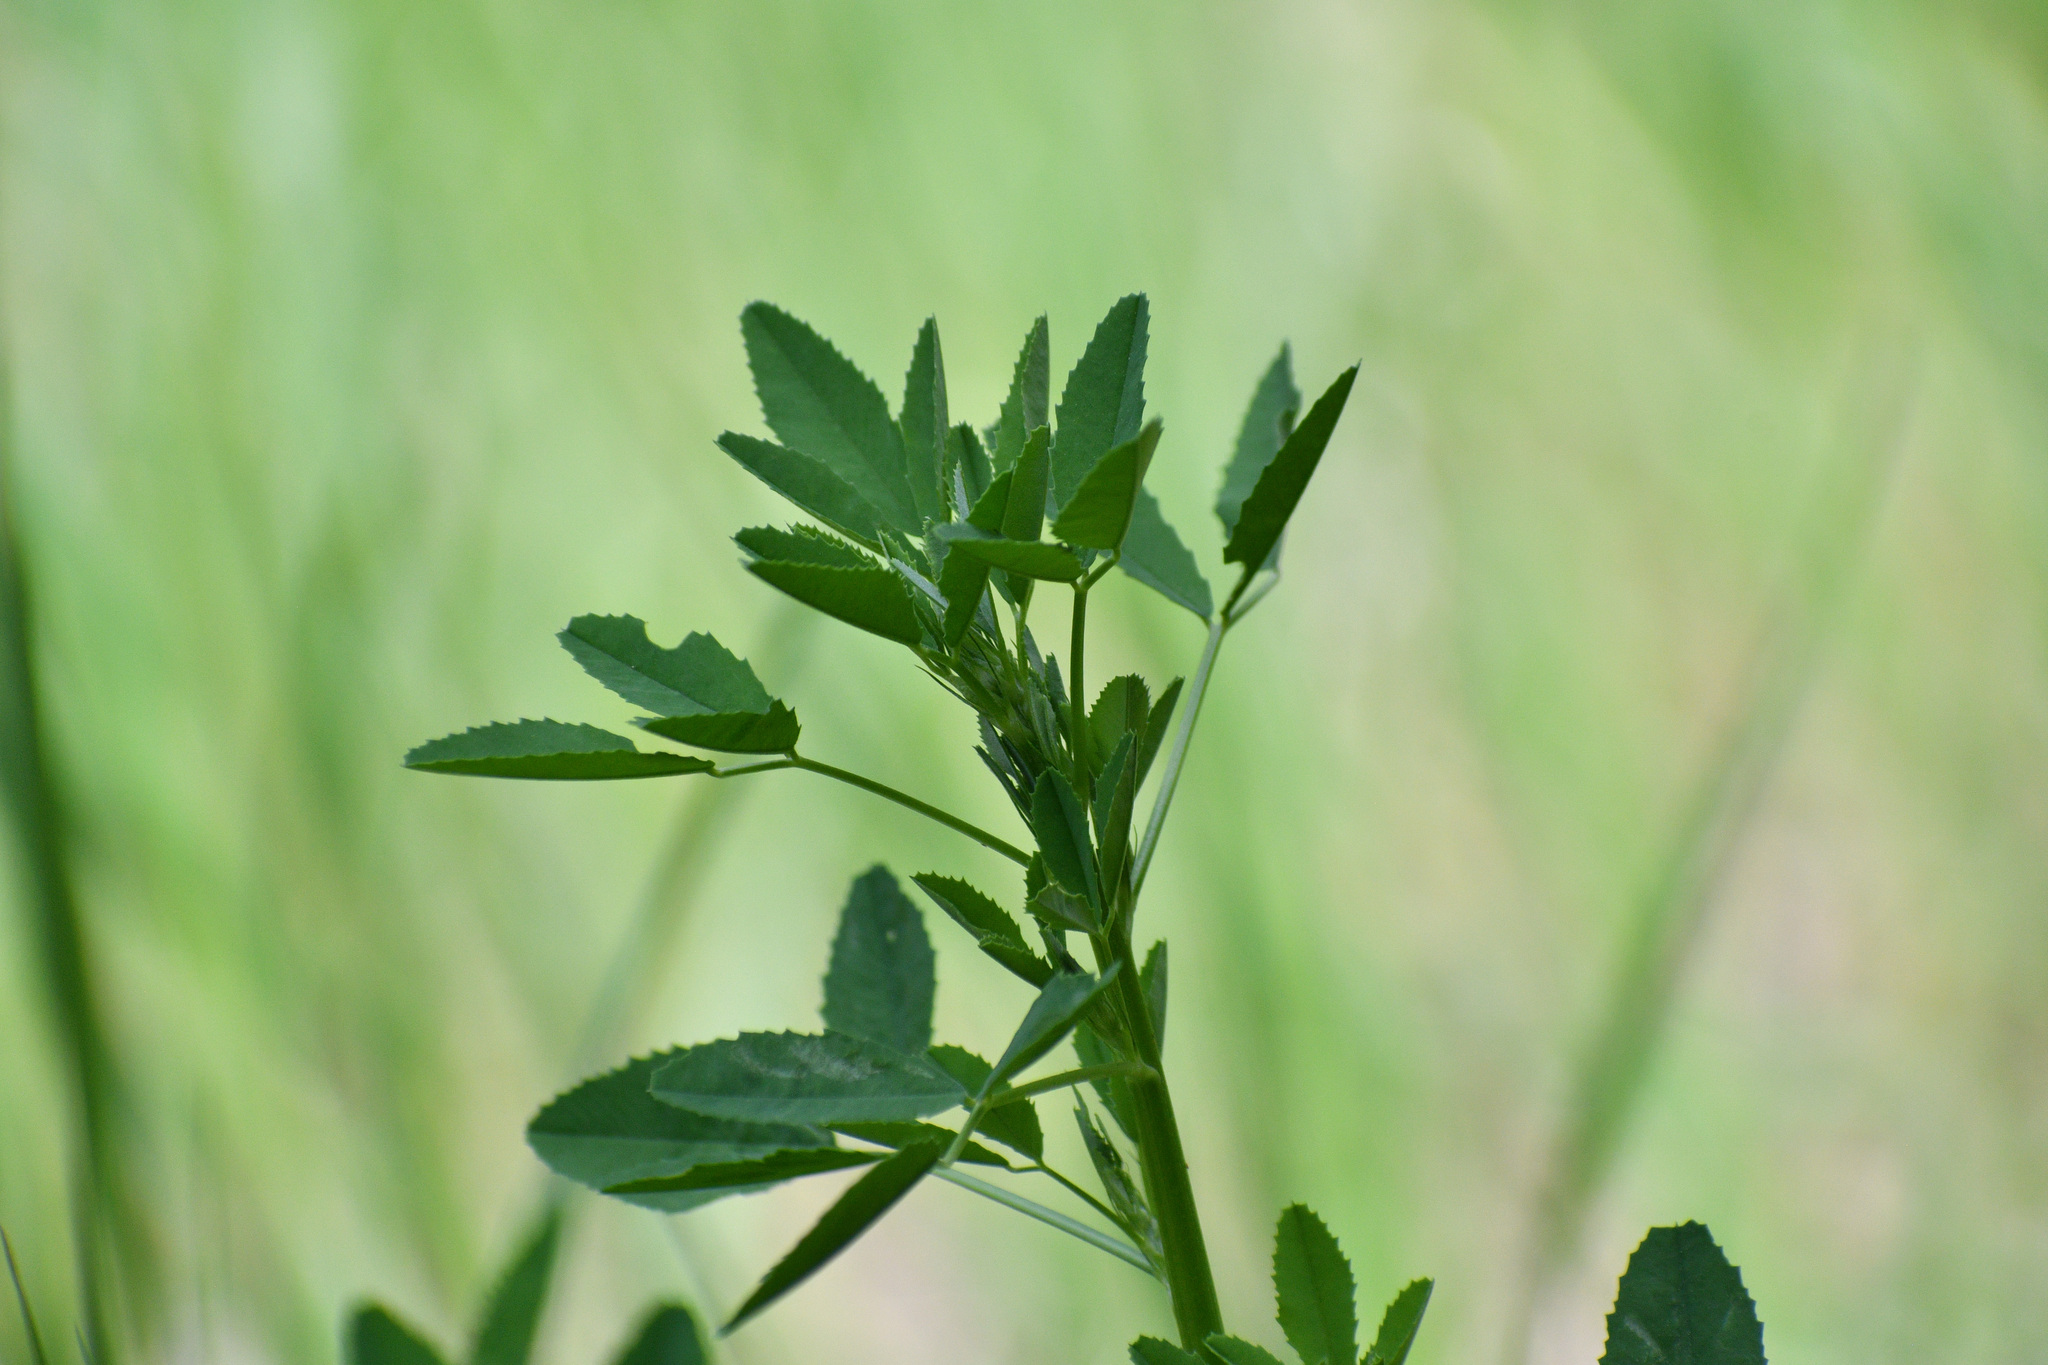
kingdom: Plantae
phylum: Tracheophyta
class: Magnoliopsida
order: Fabales
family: Fabaceae
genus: Melilotus
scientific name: Melilotus officinalis
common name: Sweetclover
